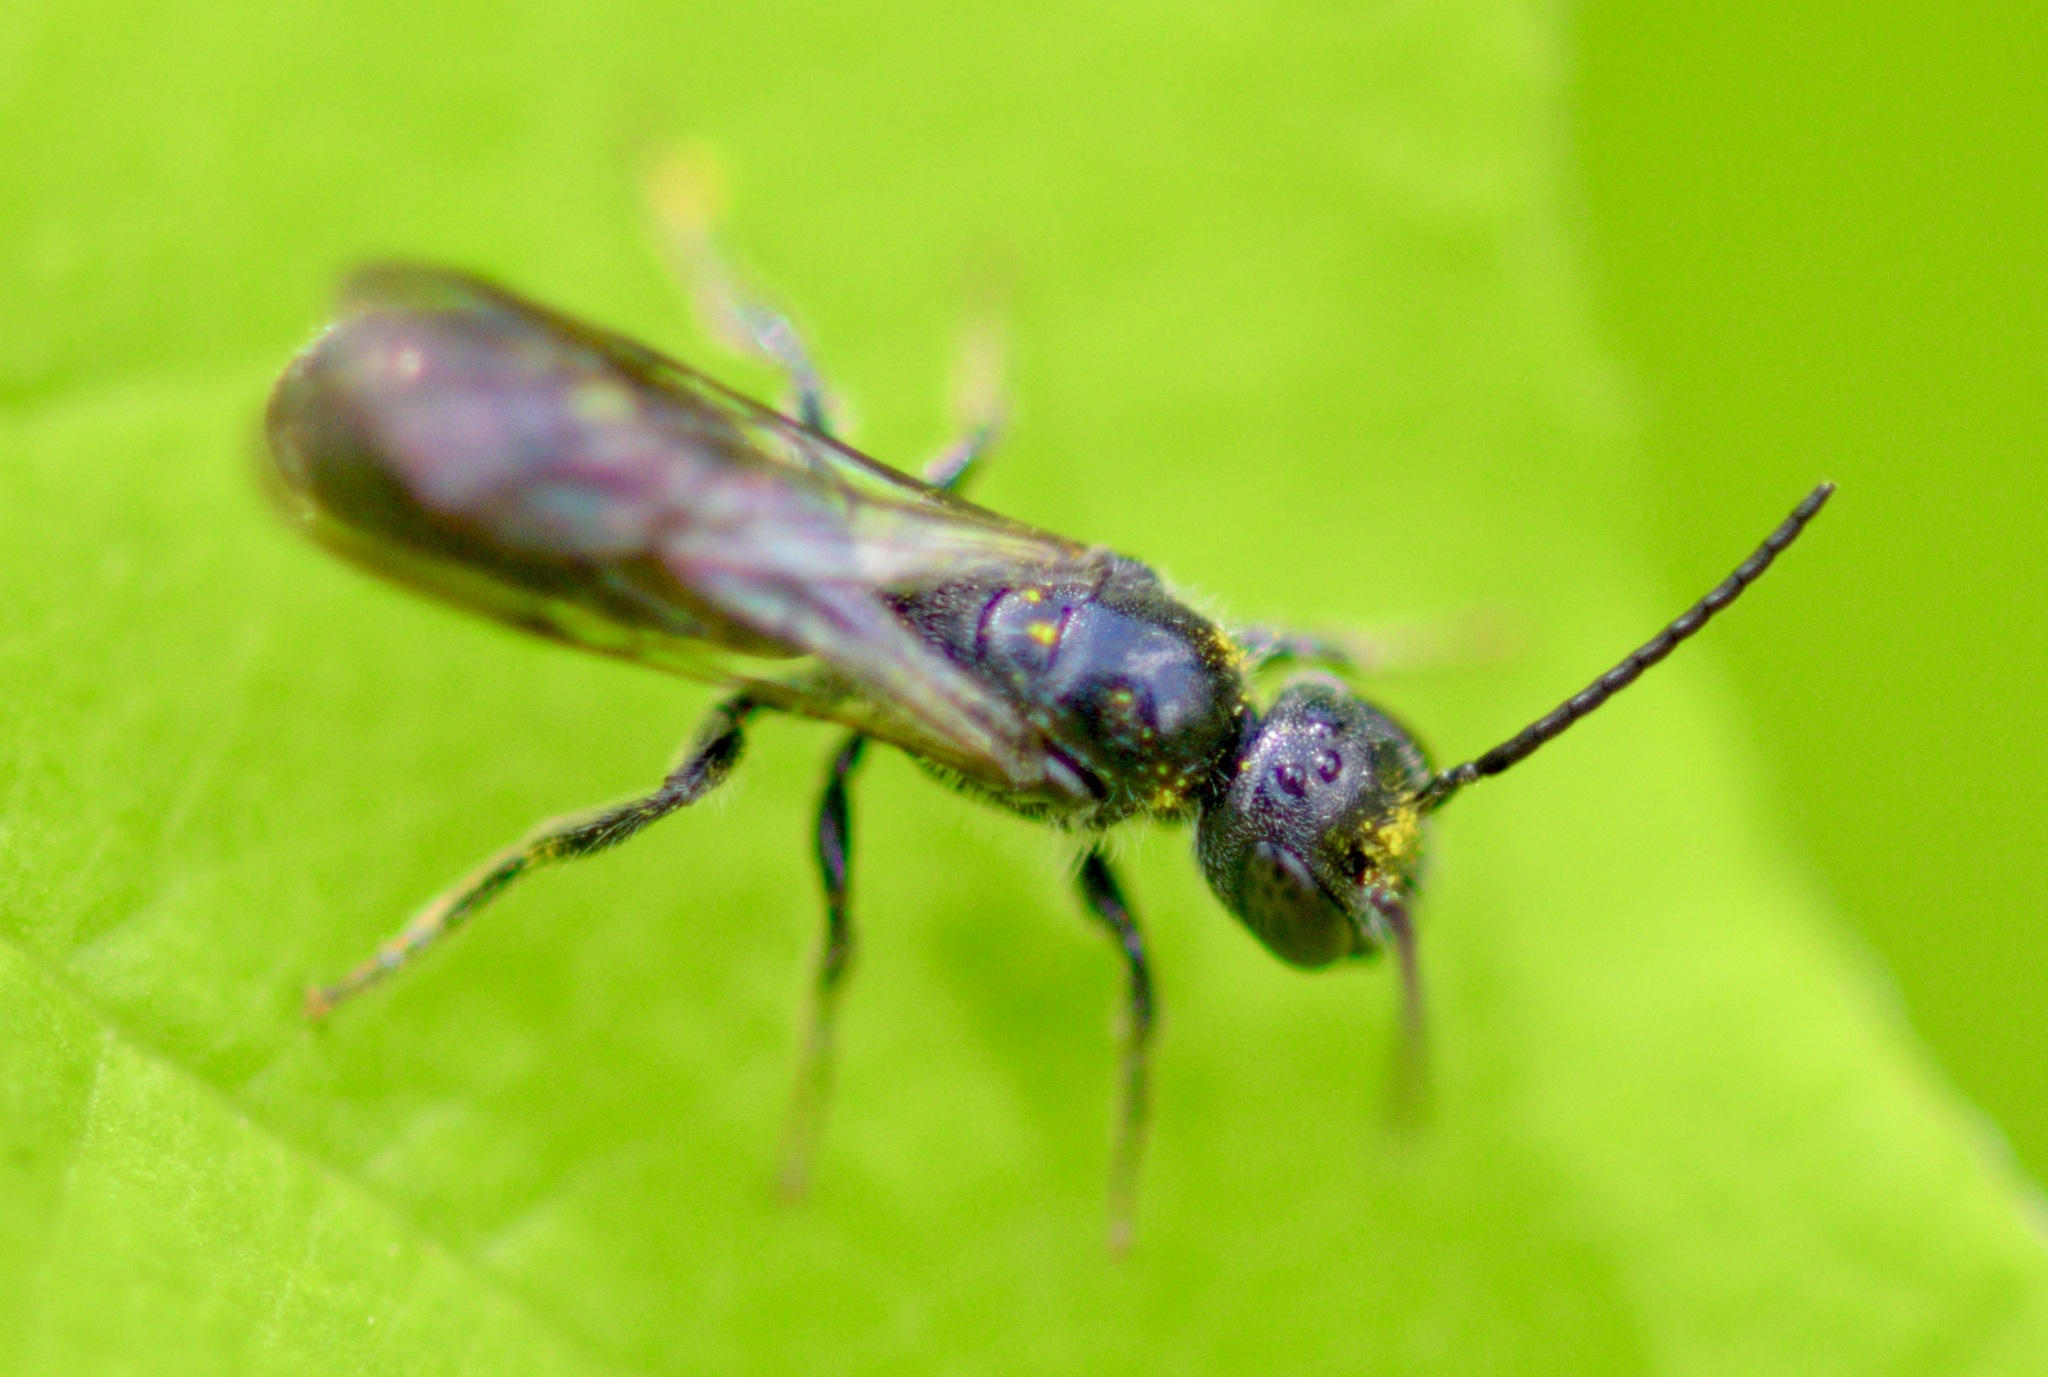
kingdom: Animalia
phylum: Arthropoda
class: Insecta
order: Hymenoptera
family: Megachilidae
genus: Chelostoma
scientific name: Chelostoma philadelphi
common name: Mock-orange scissor bee
